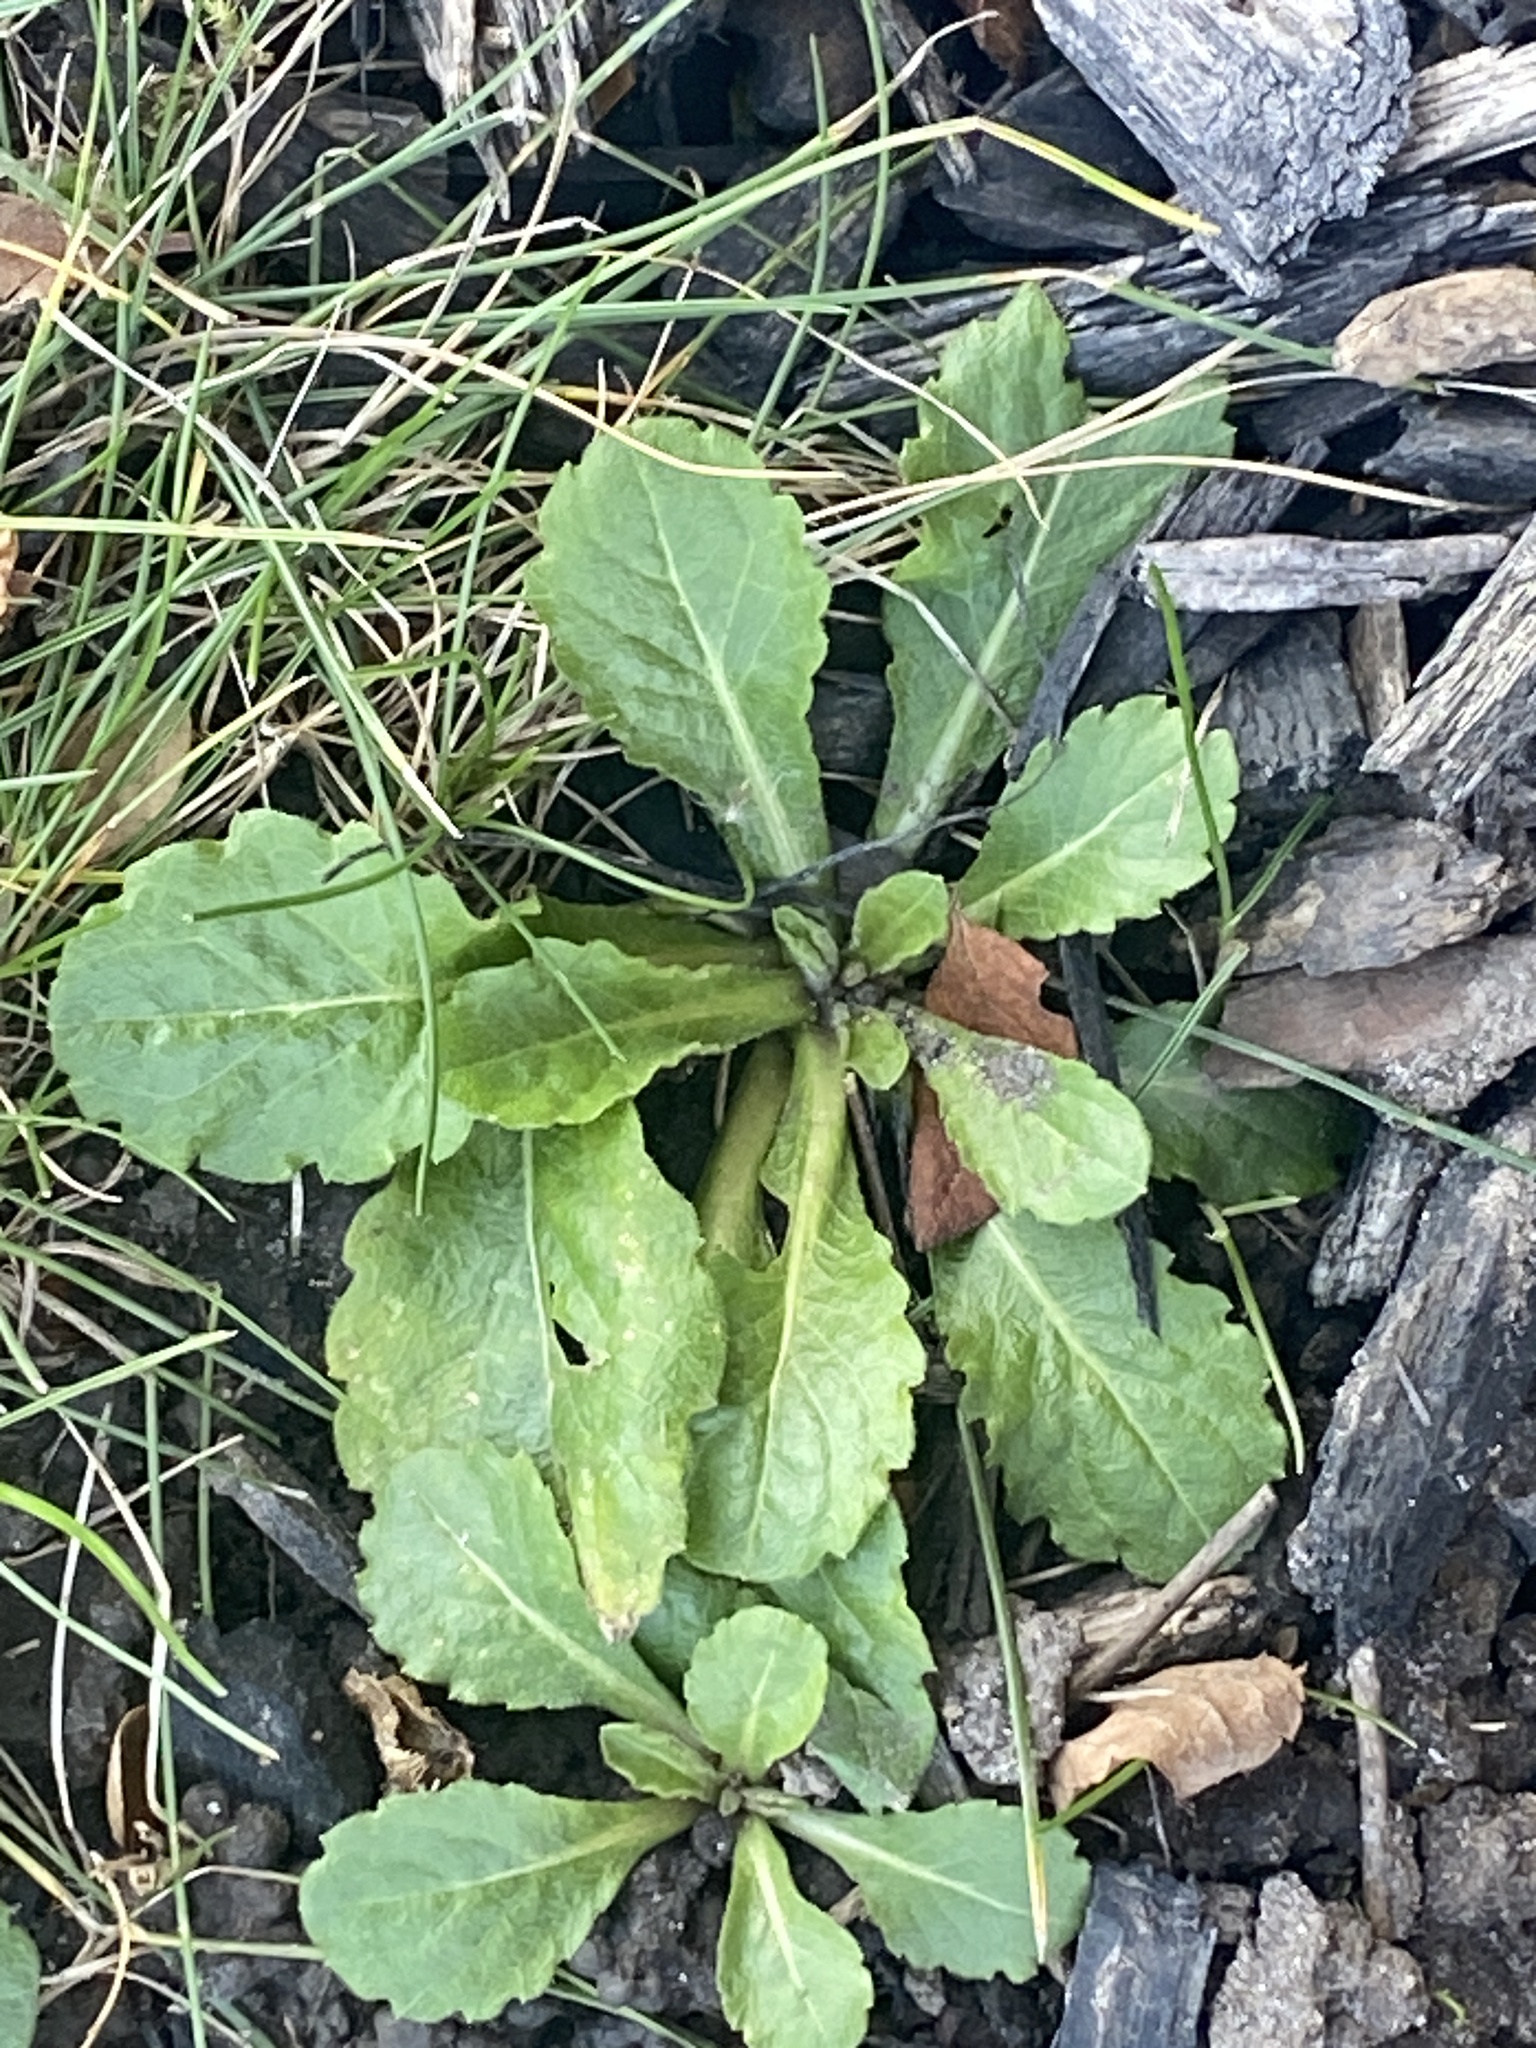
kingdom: Plantae
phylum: Tracheophyta
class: Magnoliopsida
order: Asterales
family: Asteraceae
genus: Erigeron
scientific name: Erigeron philadelphicus
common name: Robin's-plantain
